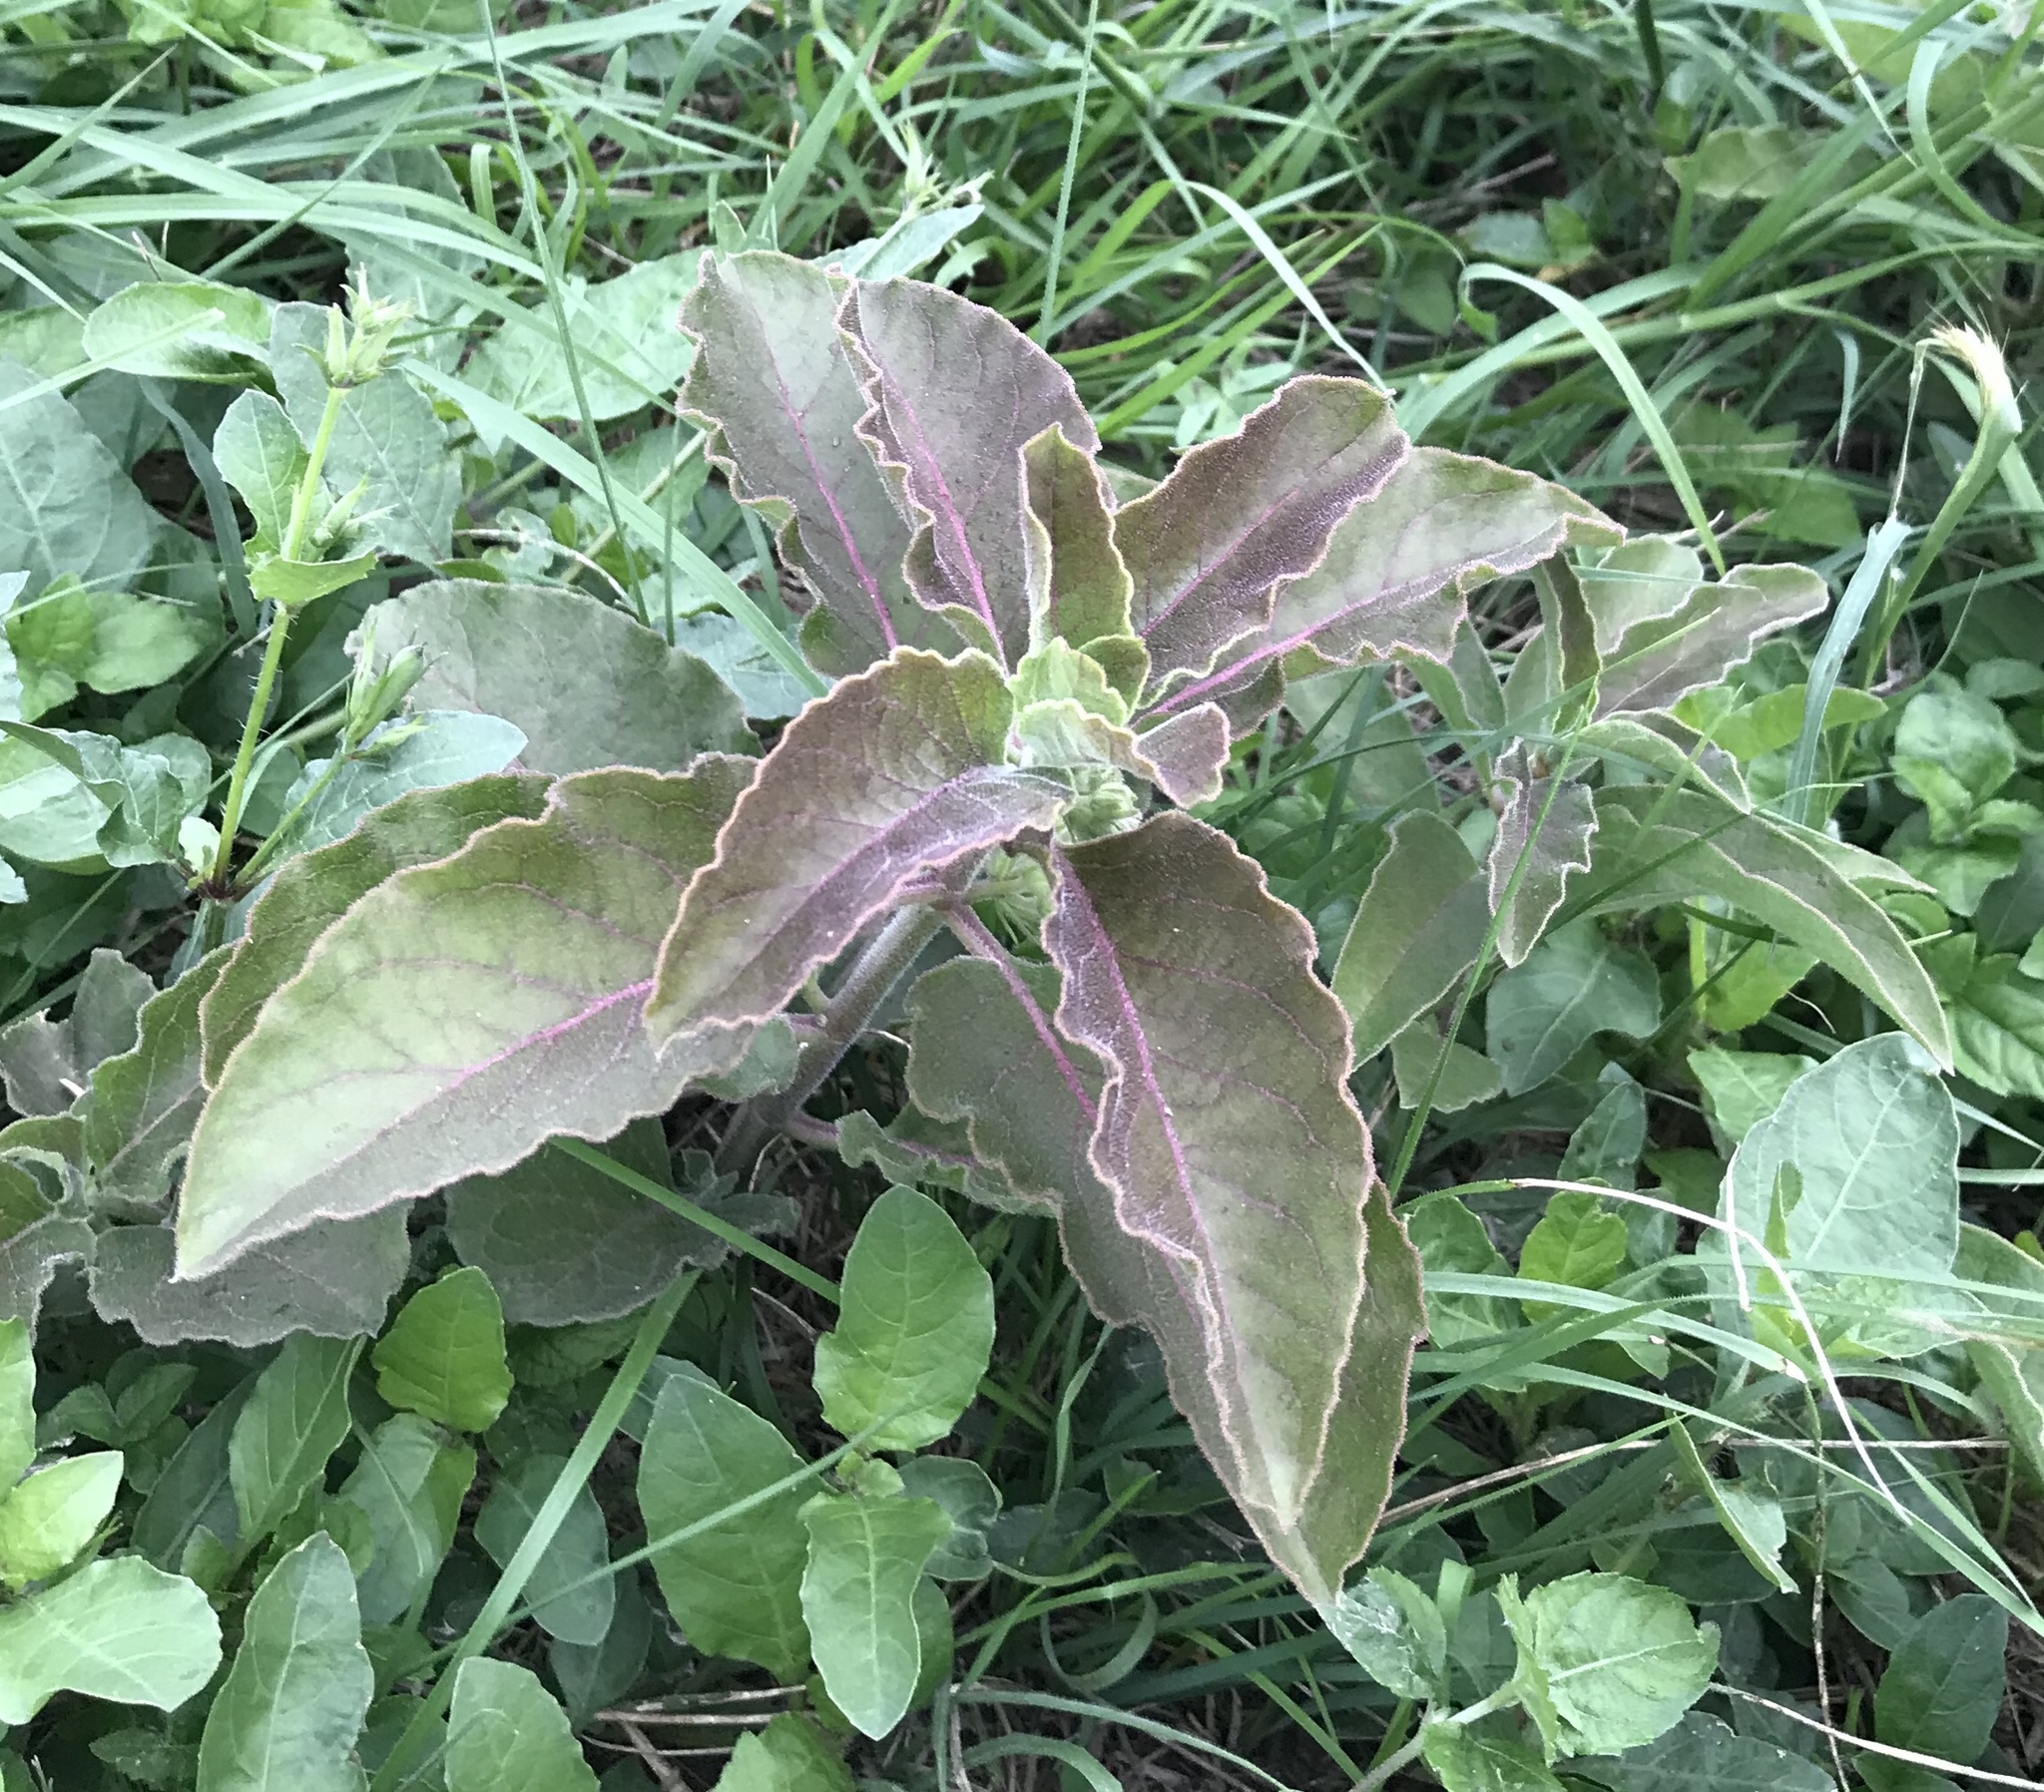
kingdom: Plantae
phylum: Tracheophyta
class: Magnoliopsida
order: Gentianales
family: Apocynaceae
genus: Asclepias
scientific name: Asclepias oenotheroides
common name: Zizotes milkweed
